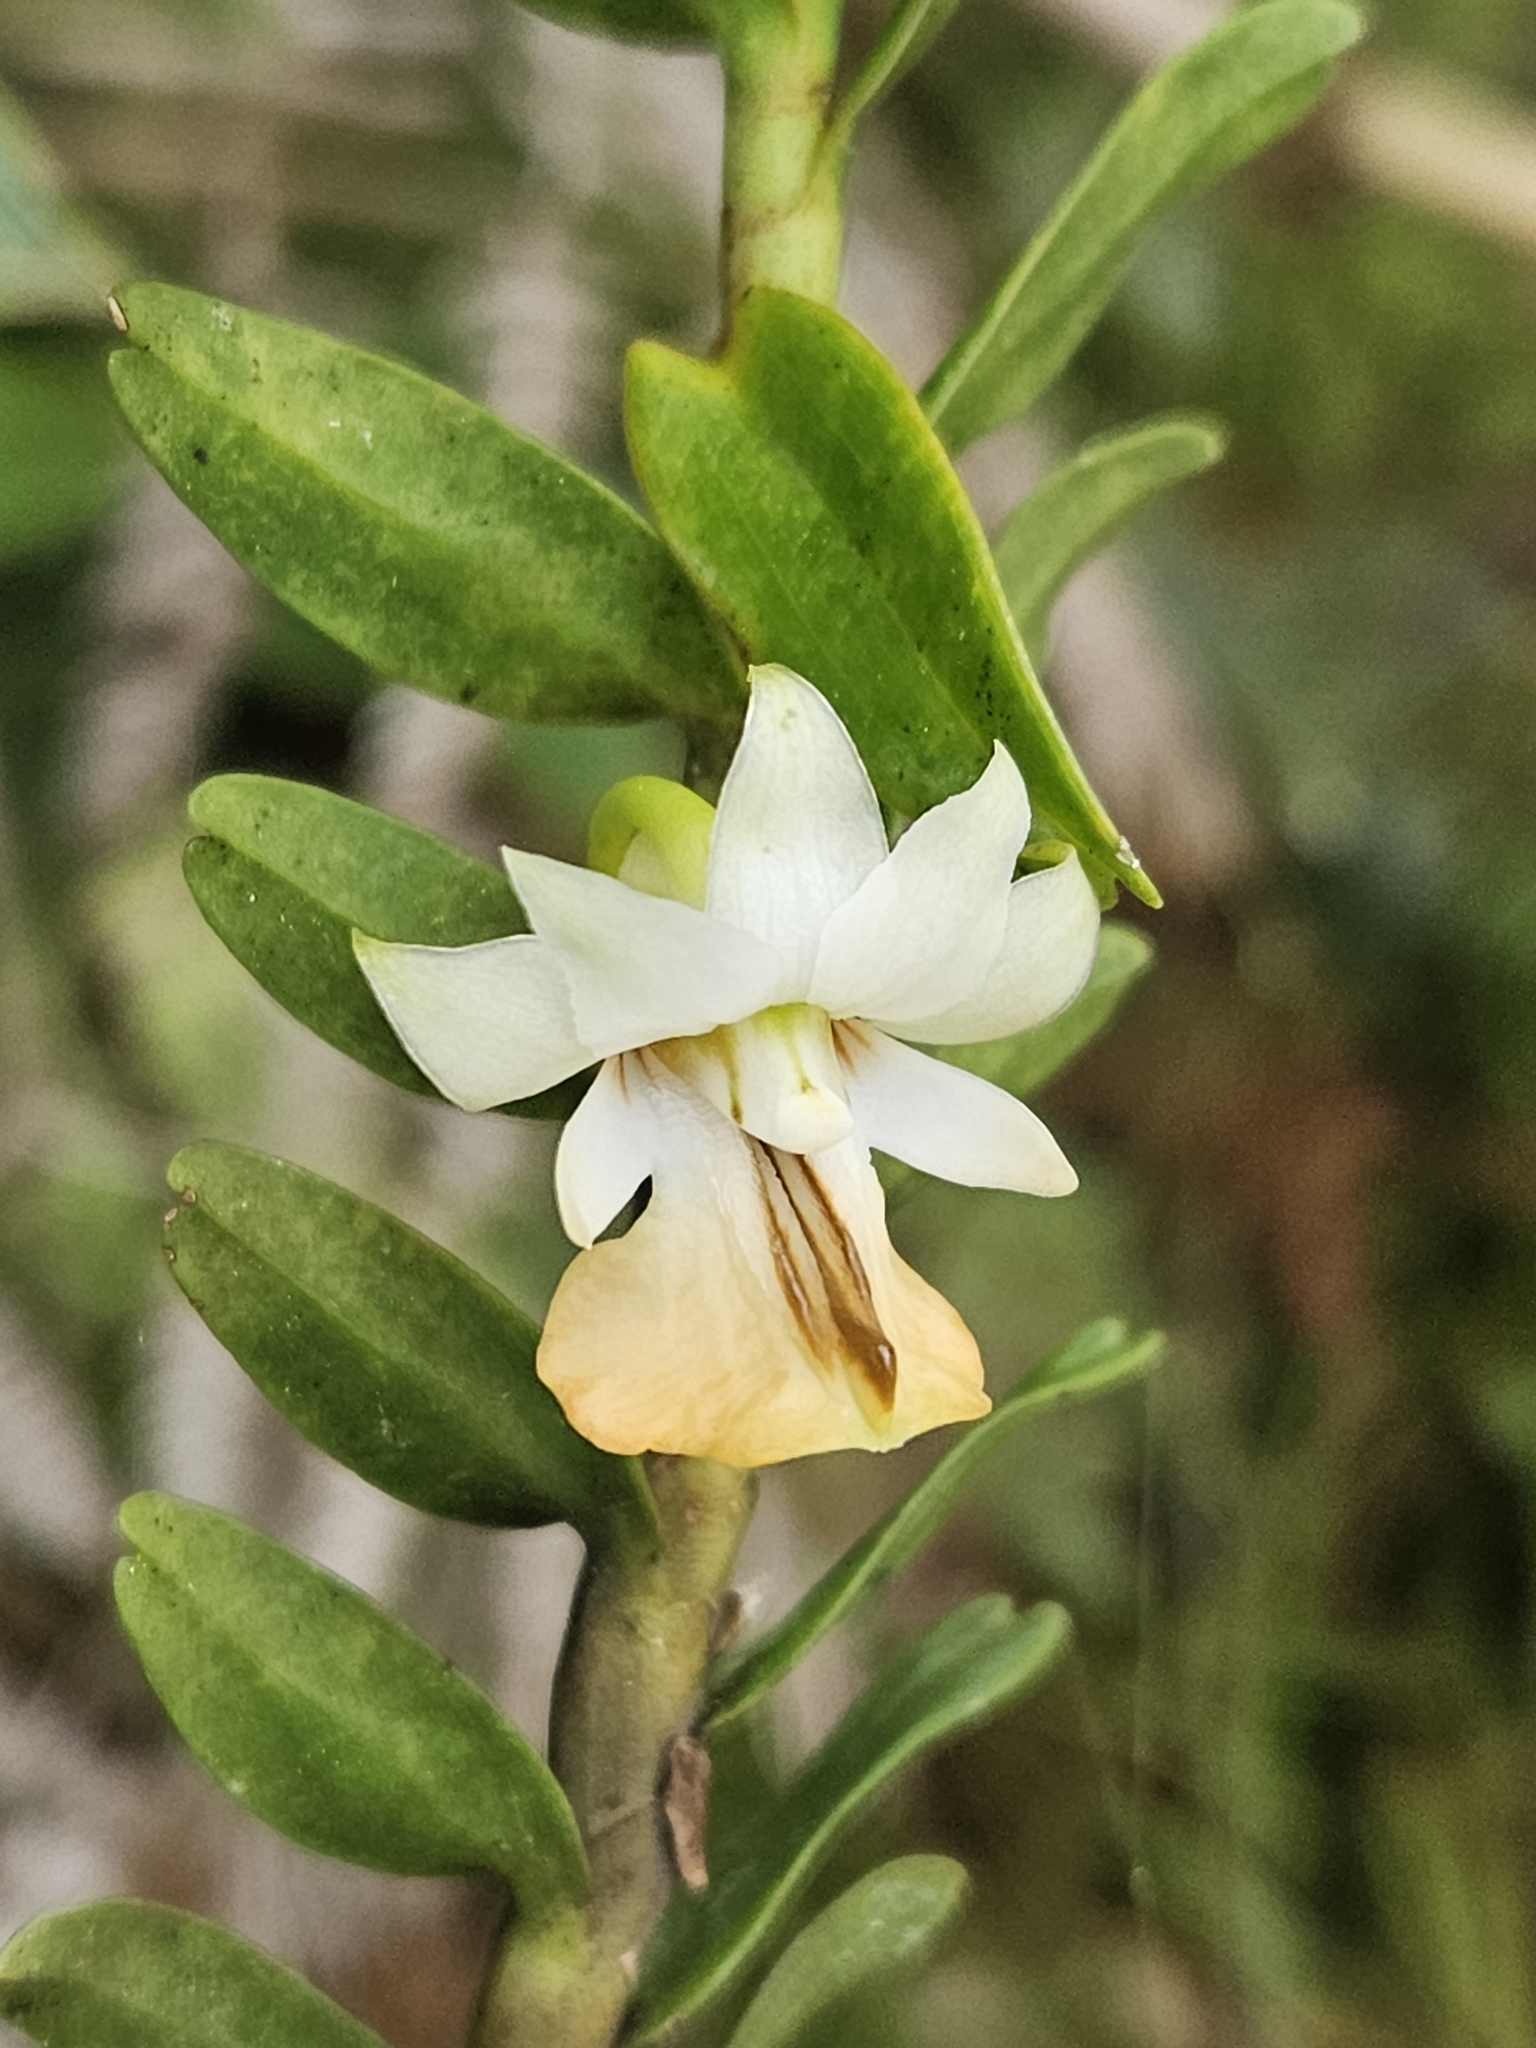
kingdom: Plantae
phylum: Tracheophyta
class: Liliopsida
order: Asparagales
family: Orchidaceae
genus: Dendrobium
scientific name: Dendrobium uniflorum
